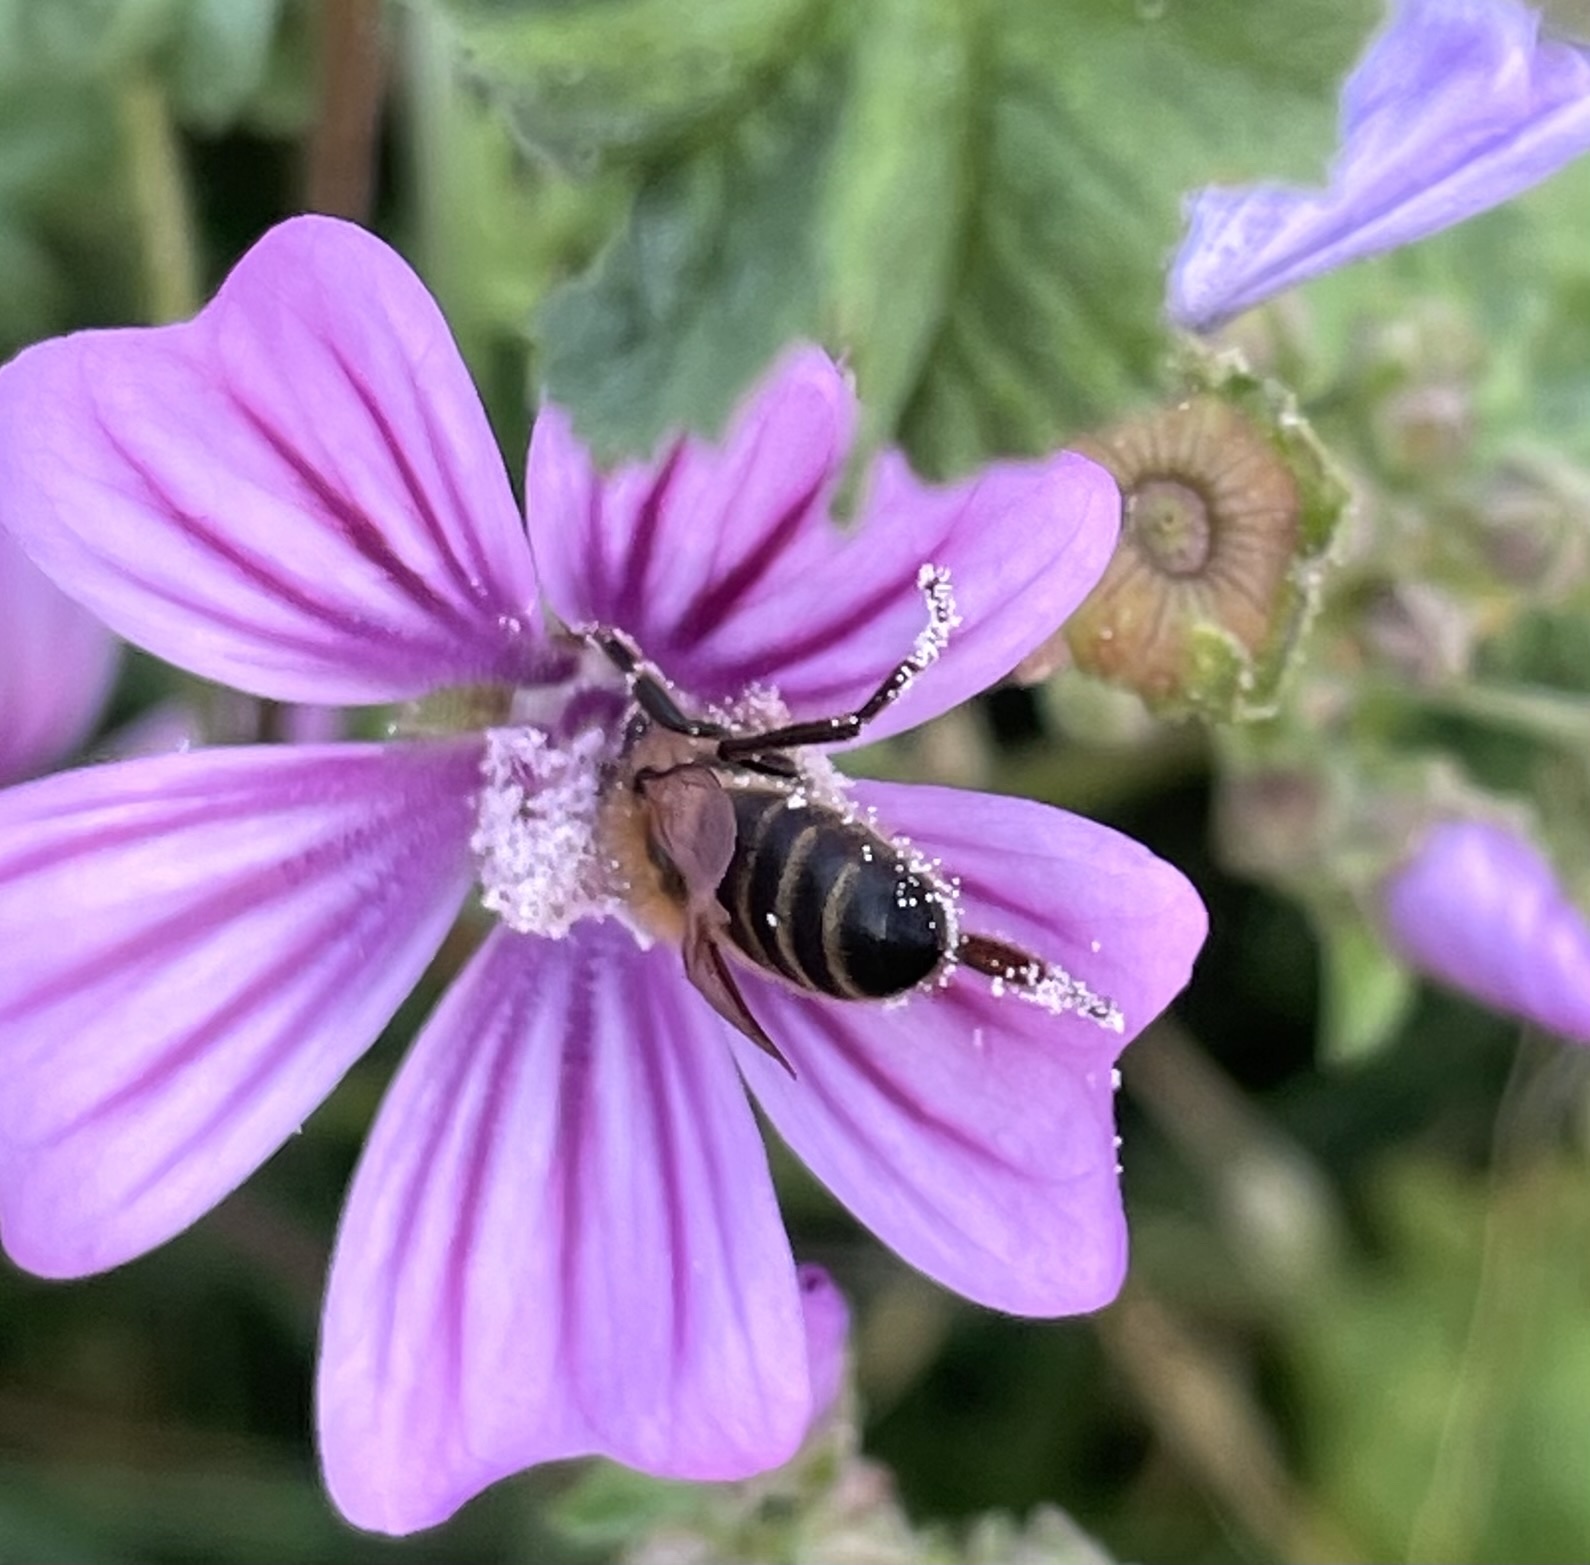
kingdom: Animalia
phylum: Arthropoda
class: Insecta
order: Hymenoptera
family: Apidae
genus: Apis
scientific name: Apis mellifera
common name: Honey bee
